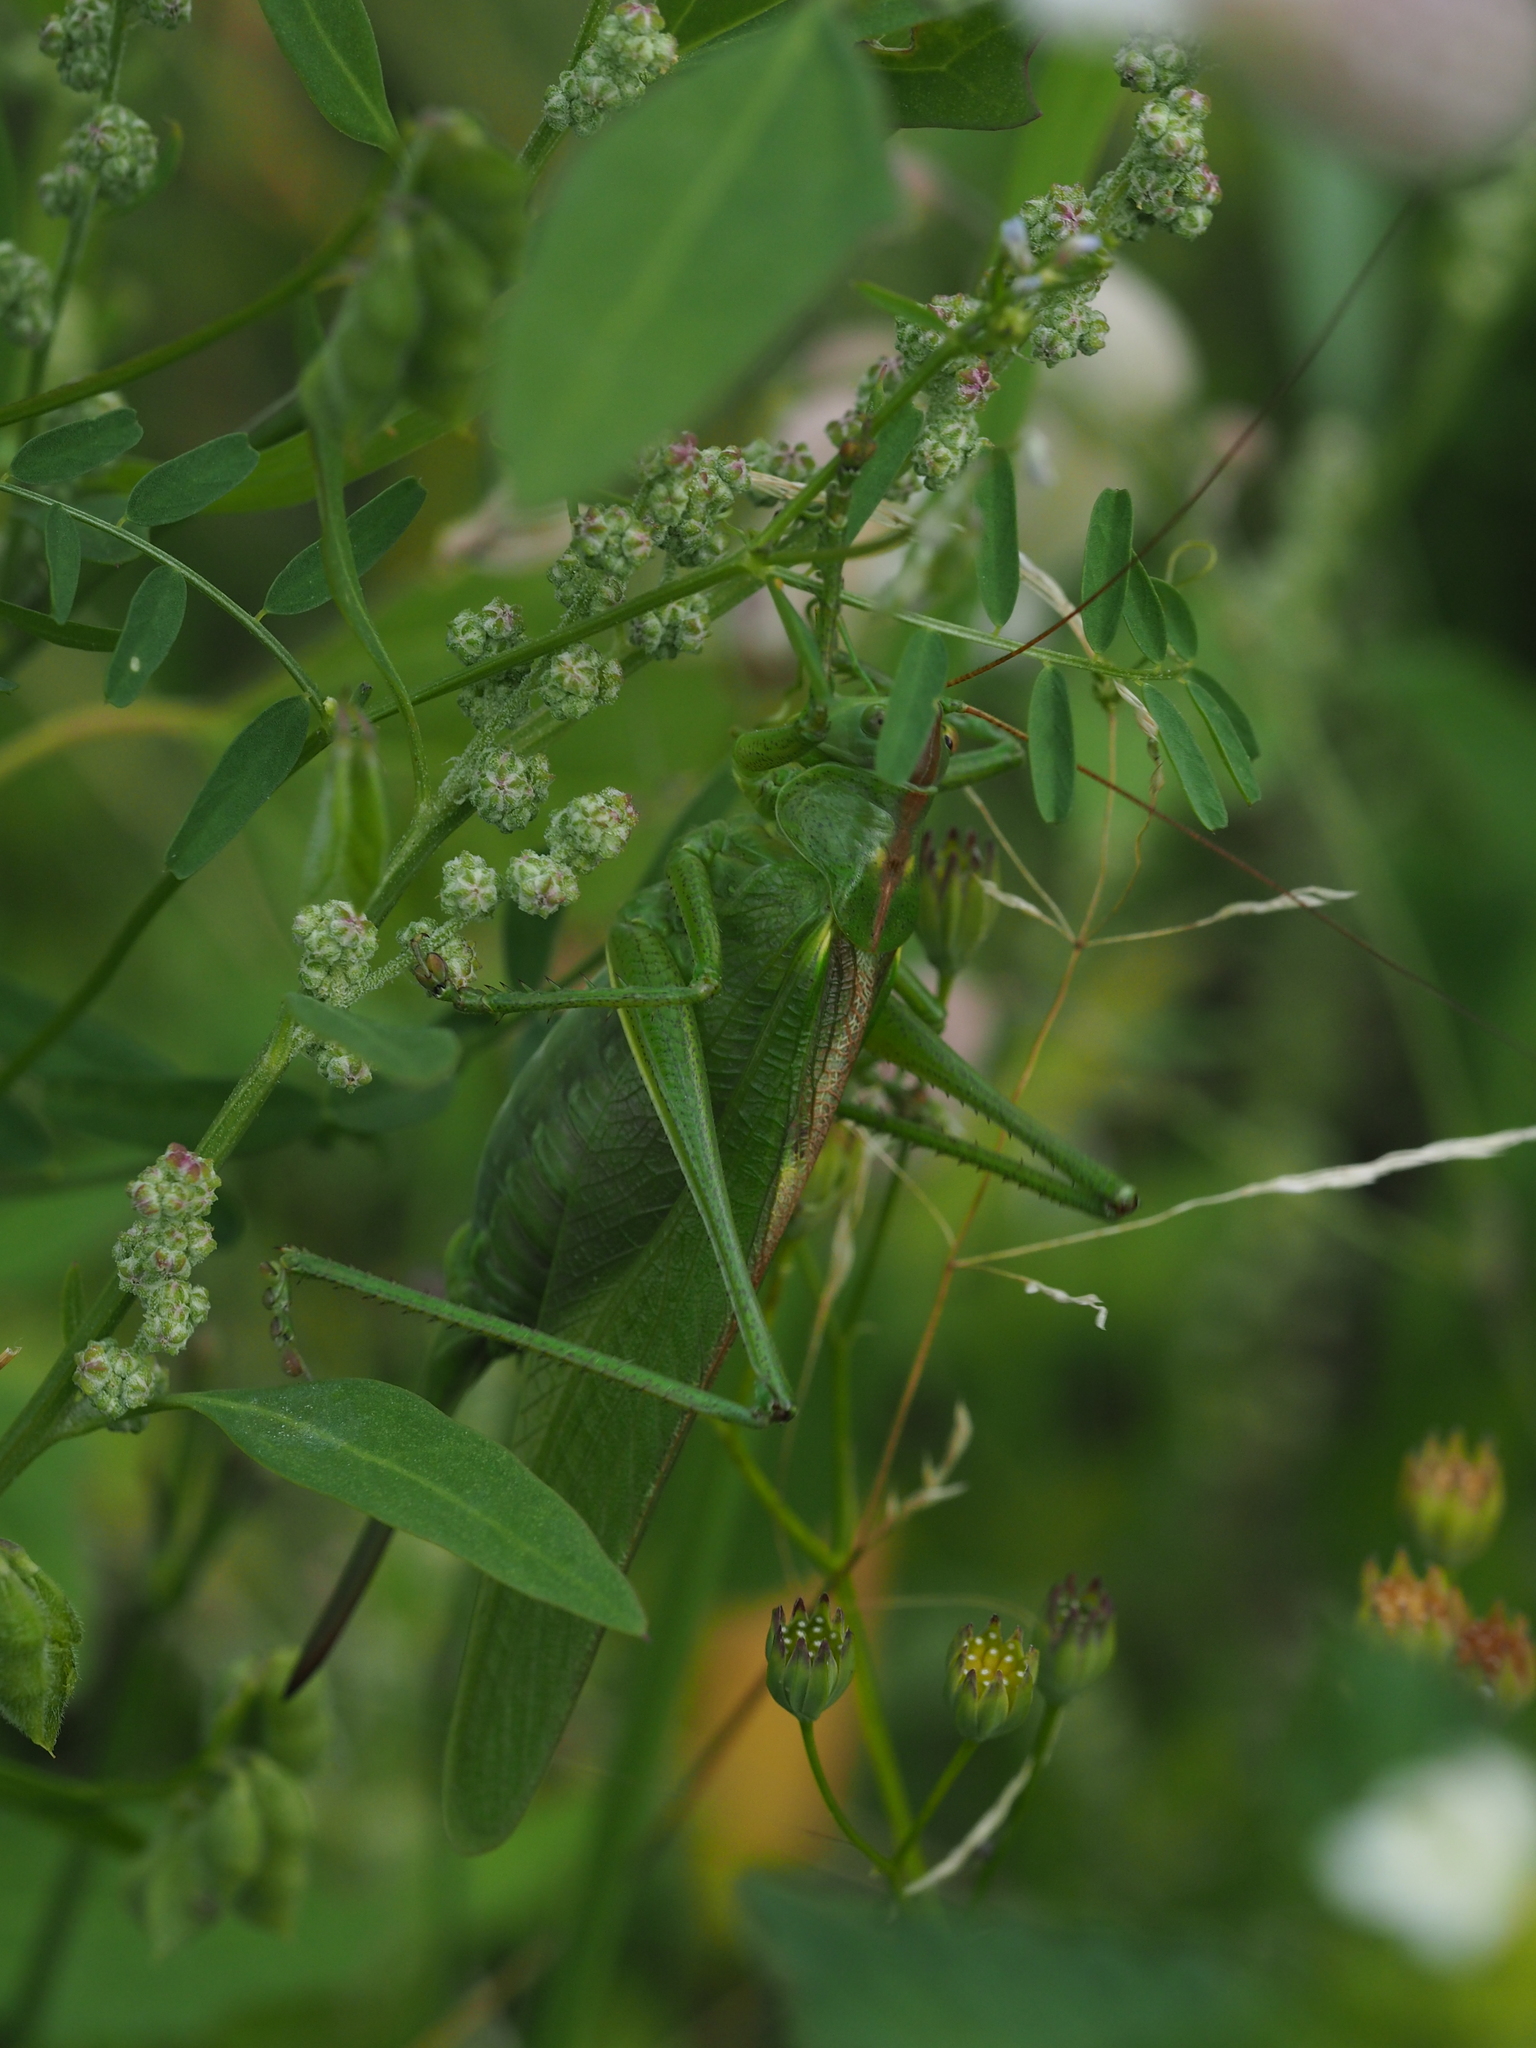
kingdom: Animalia
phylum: Arthropoda
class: Insecta
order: Orthoptera
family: Tettigoniidae
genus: Tettigonia
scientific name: Tettigonia viridissima
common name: Great green bush-cricket
